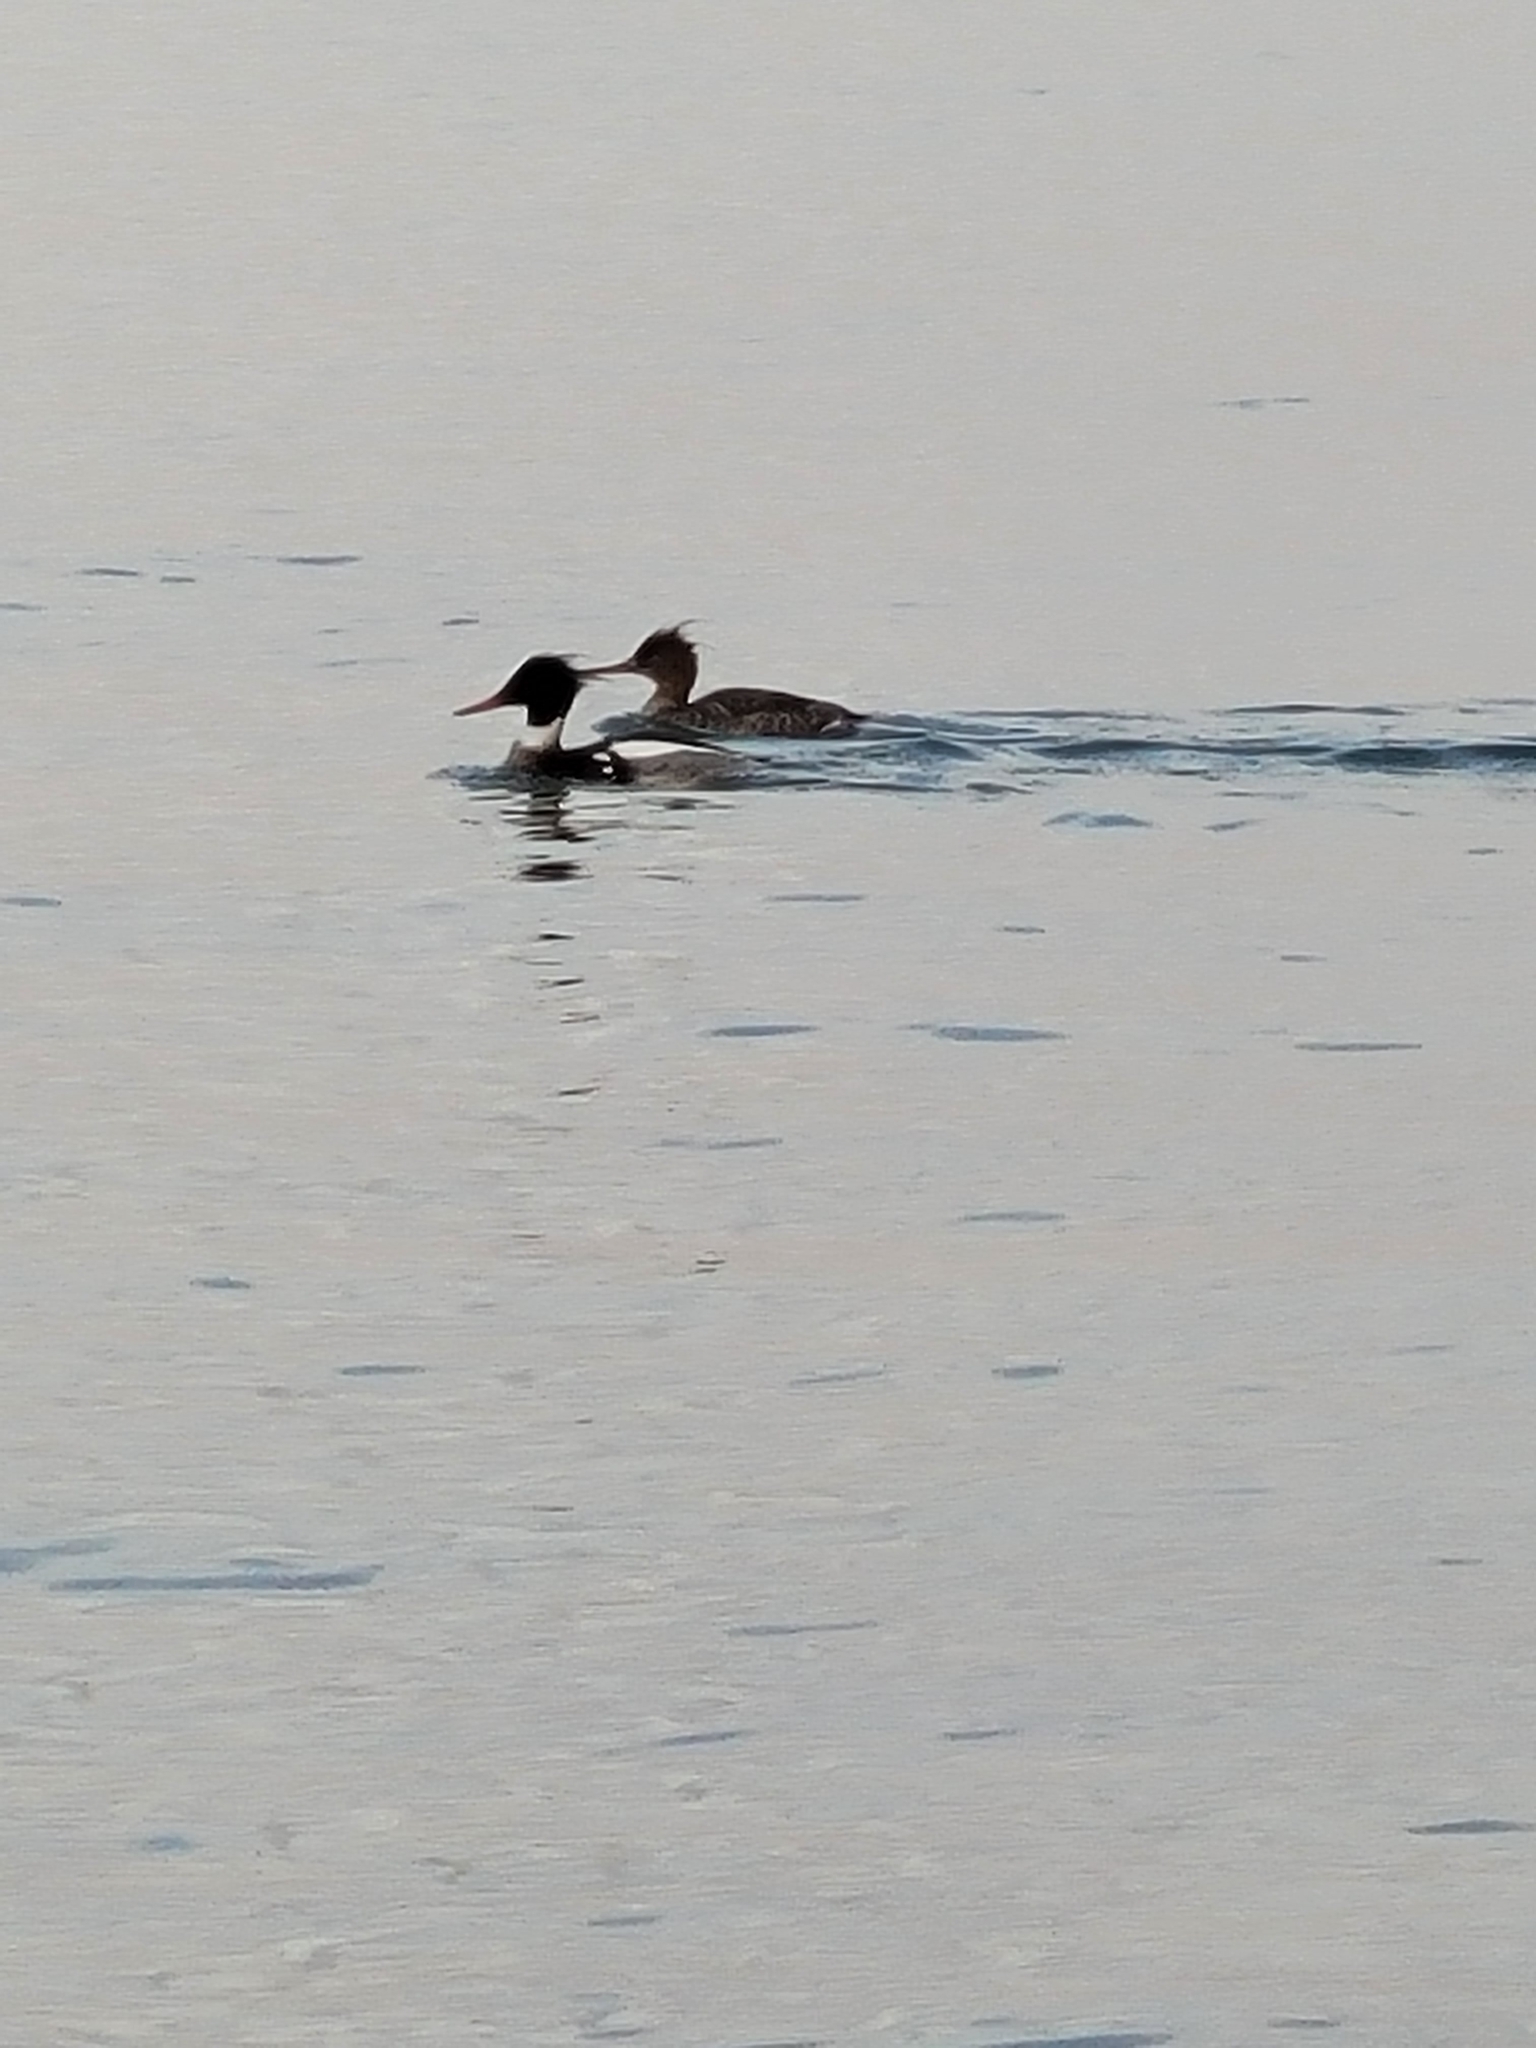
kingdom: Animalia
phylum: Chordata
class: Aves
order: Anseriformes
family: Anatidae
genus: Mergus
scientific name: Mergus serrator
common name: Red-breasted merganser
